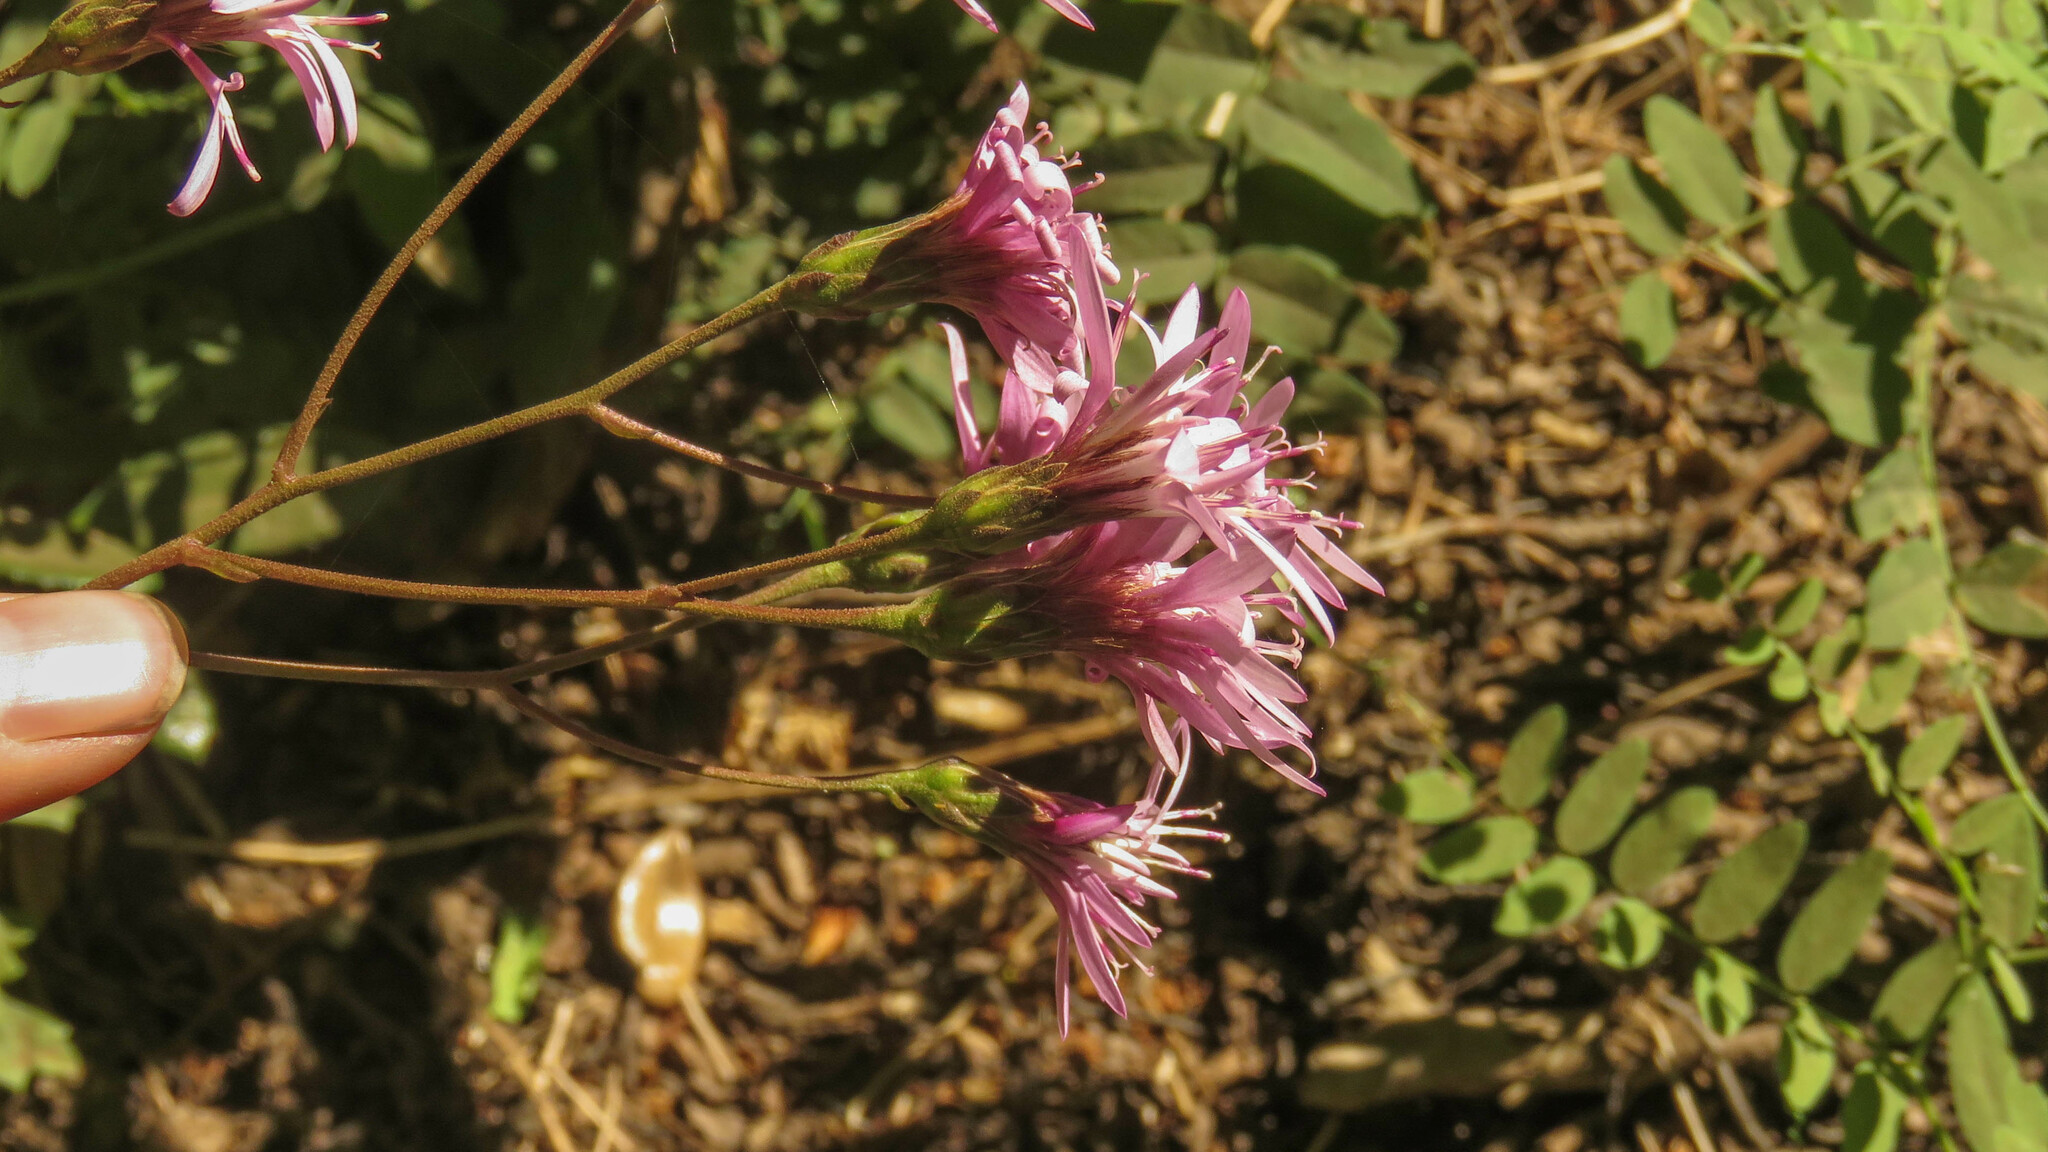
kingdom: Plantae
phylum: Tracheophyta
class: Magnoliopsida
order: Asterales
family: Asteraceae
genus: Perezia
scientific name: Perezia prenanthoides
